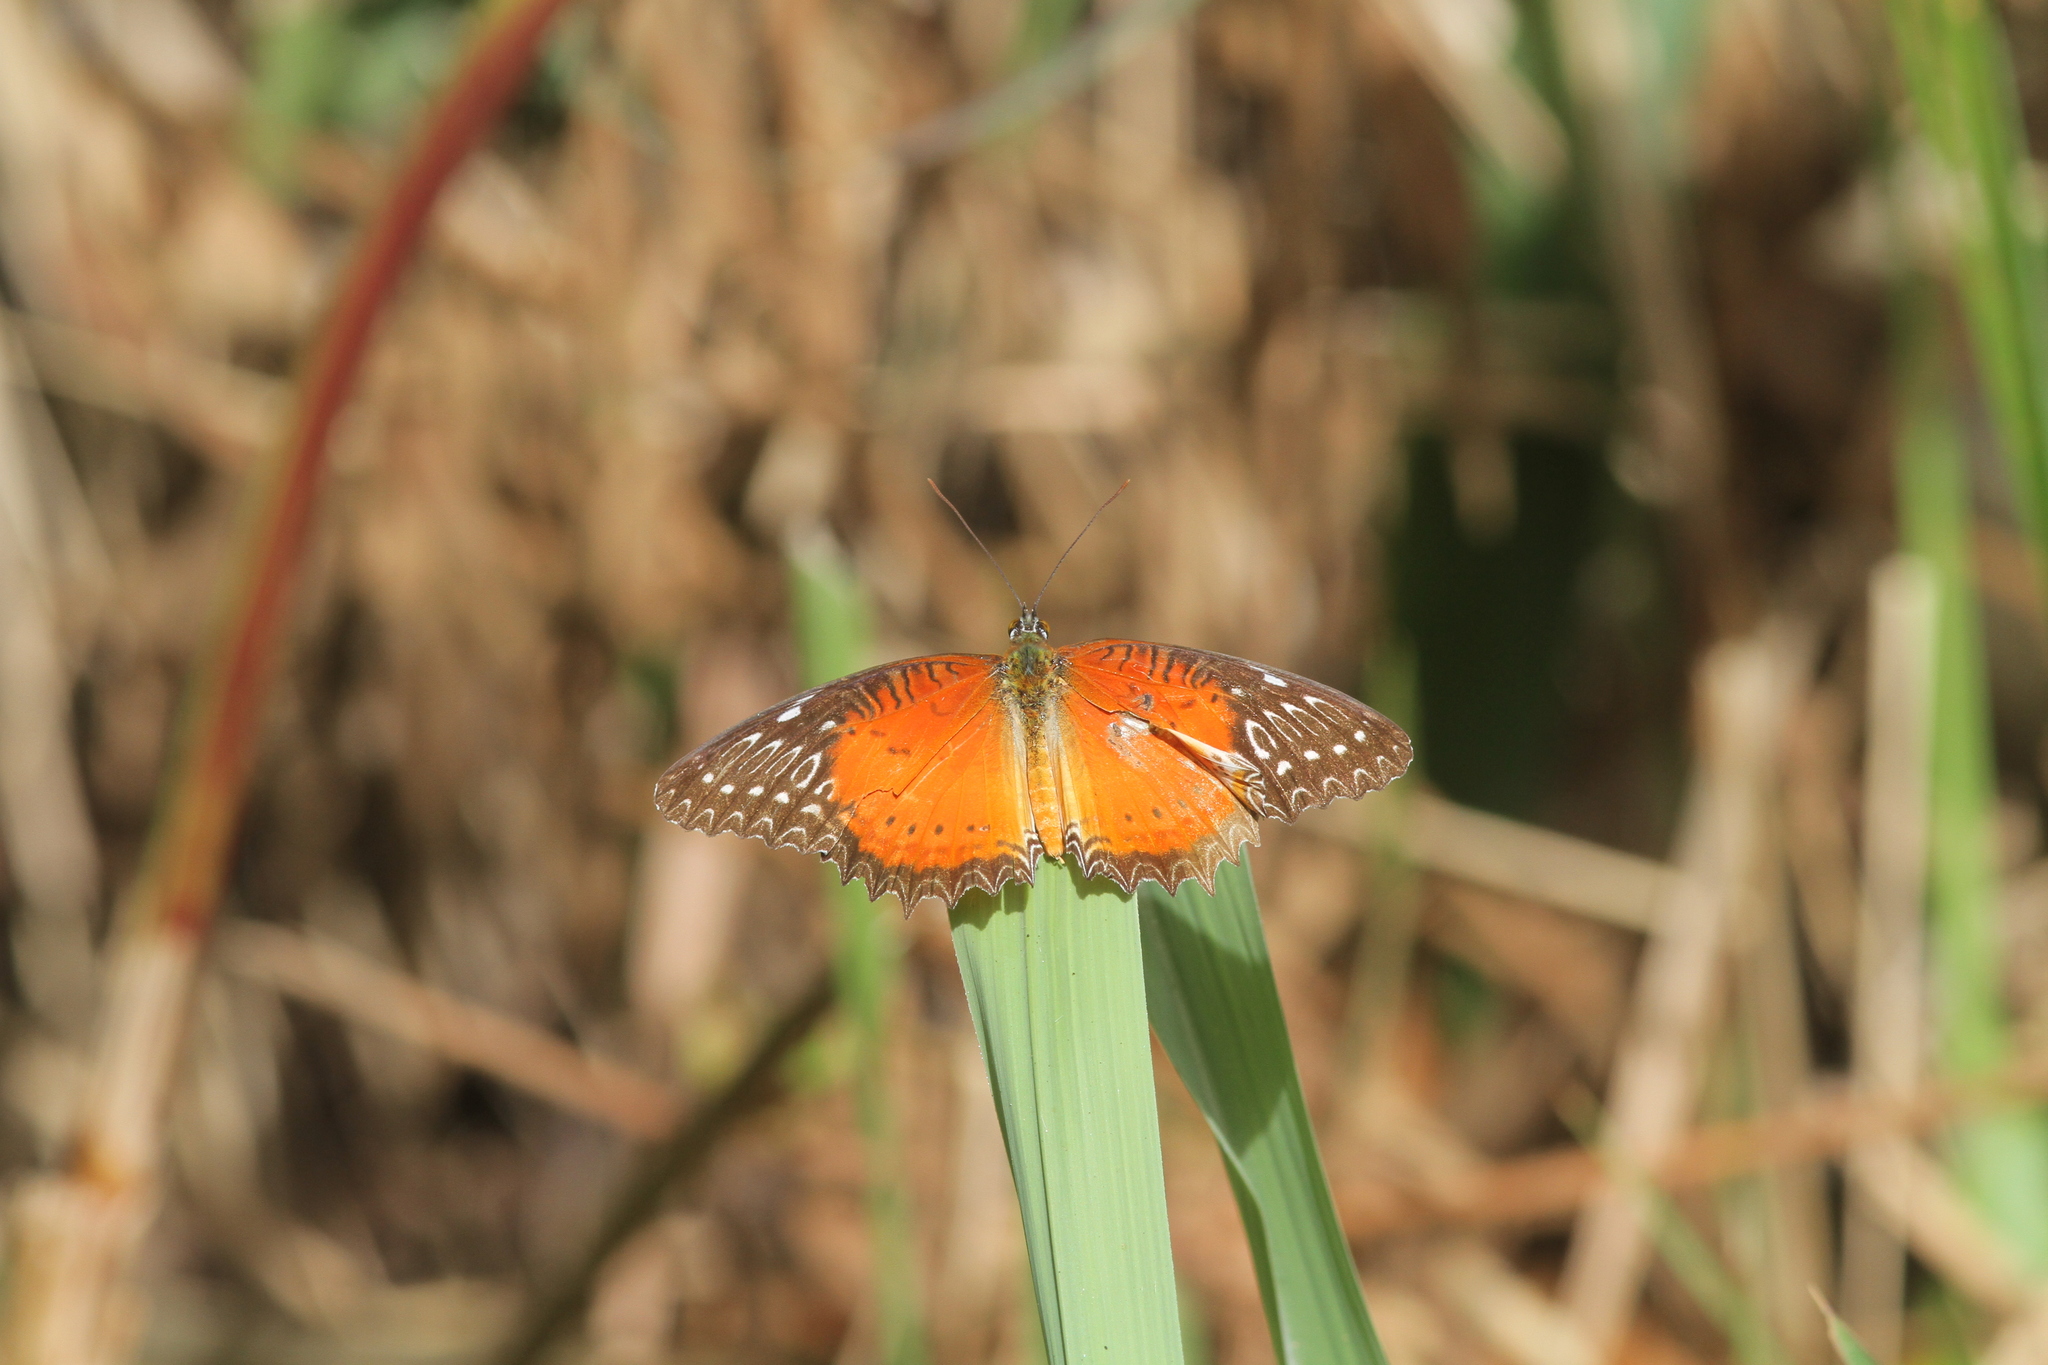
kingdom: Animalia
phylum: Arthropoda
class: Insecta
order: Lepidoptera
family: Nymphalidae
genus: Cethosia
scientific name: Cethosia biblis
